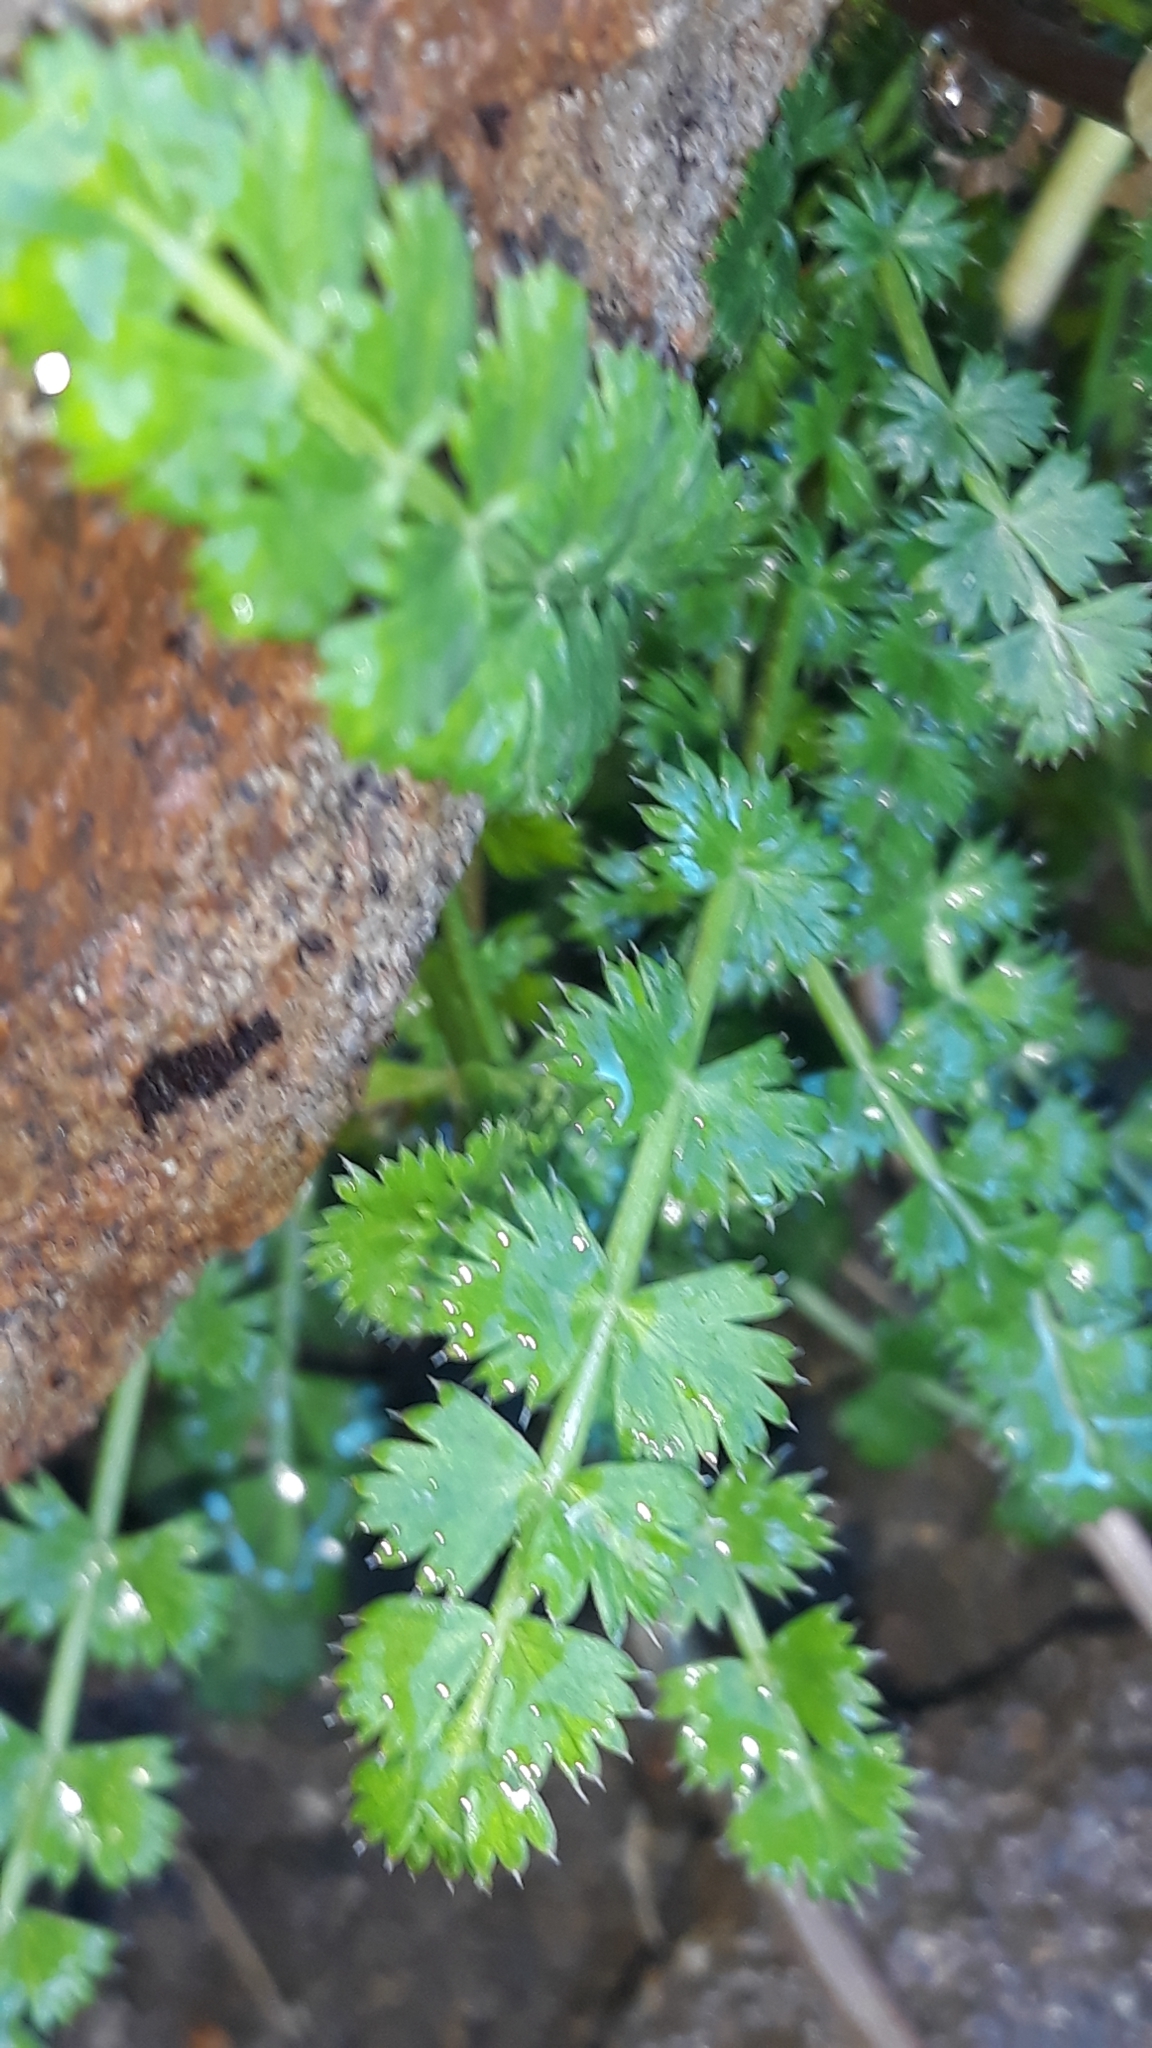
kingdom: Plantae
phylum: Tracheophyta
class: Magnoliopsida
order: Apiales
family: Apiaceae
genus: Anisotome
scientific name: Anisotome aromatica
